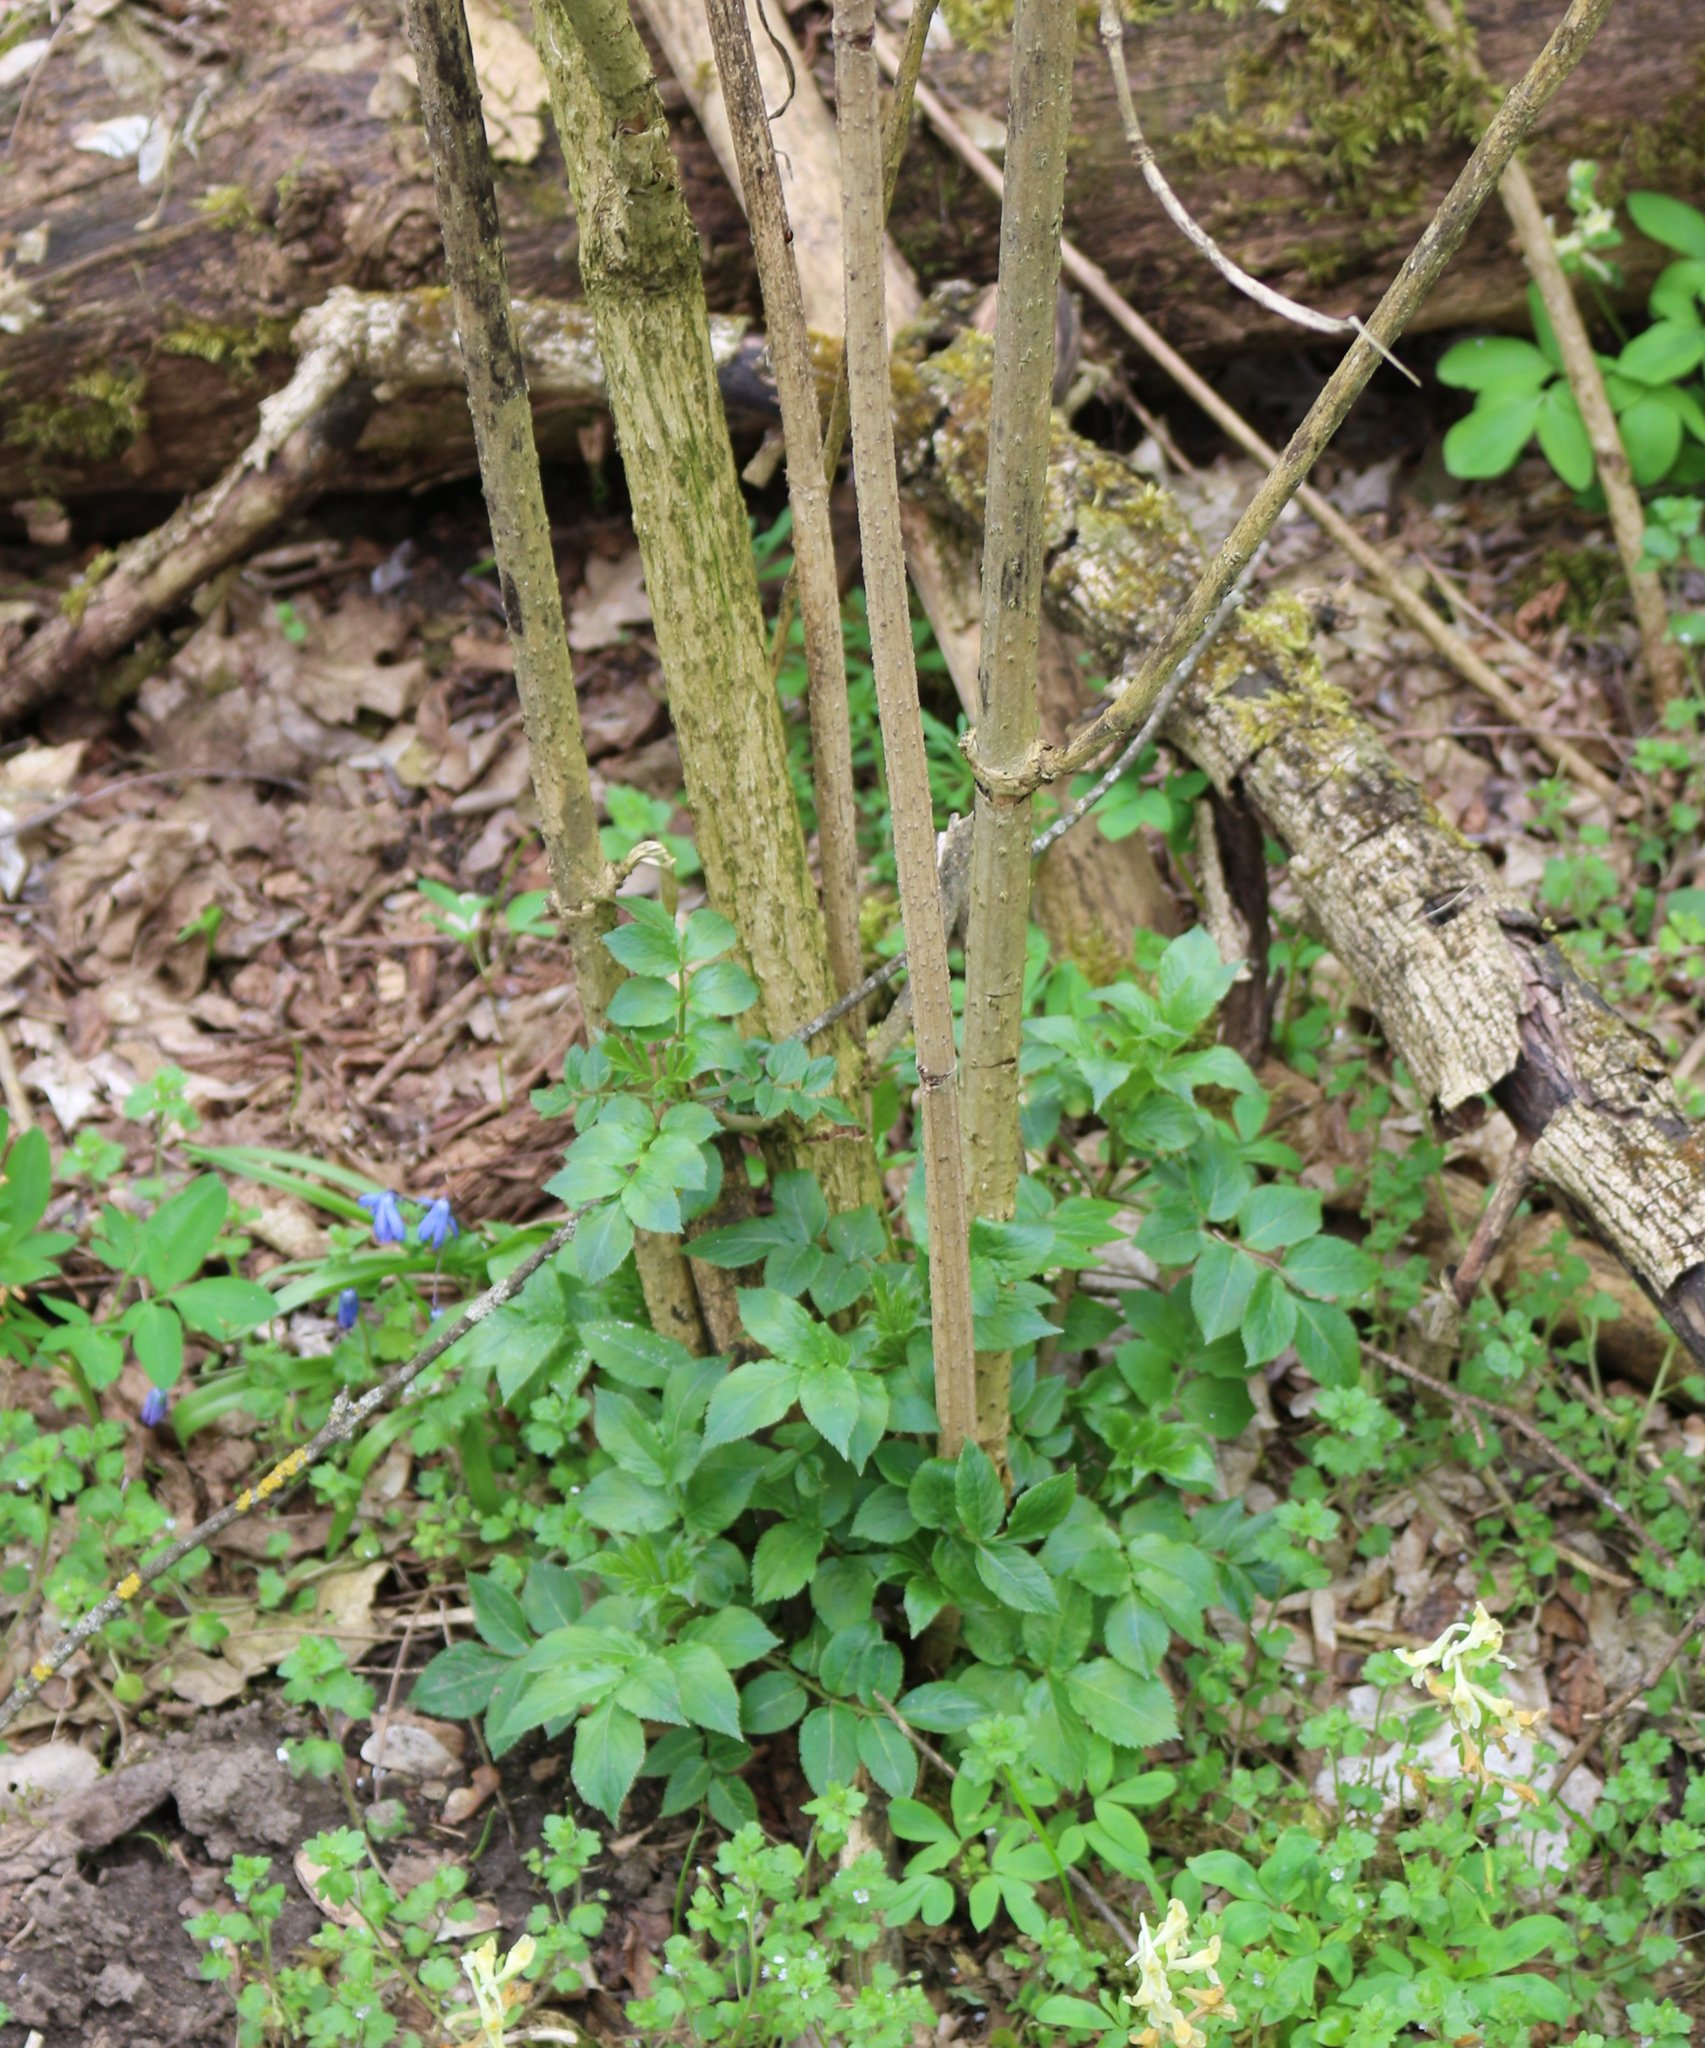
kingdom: Plantae
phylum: Tracheophyta
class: Magnoliopsida
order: Dipsacales
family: Viburnaceae
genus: Sambucus
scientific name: Sambucus nigra
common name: Elder
